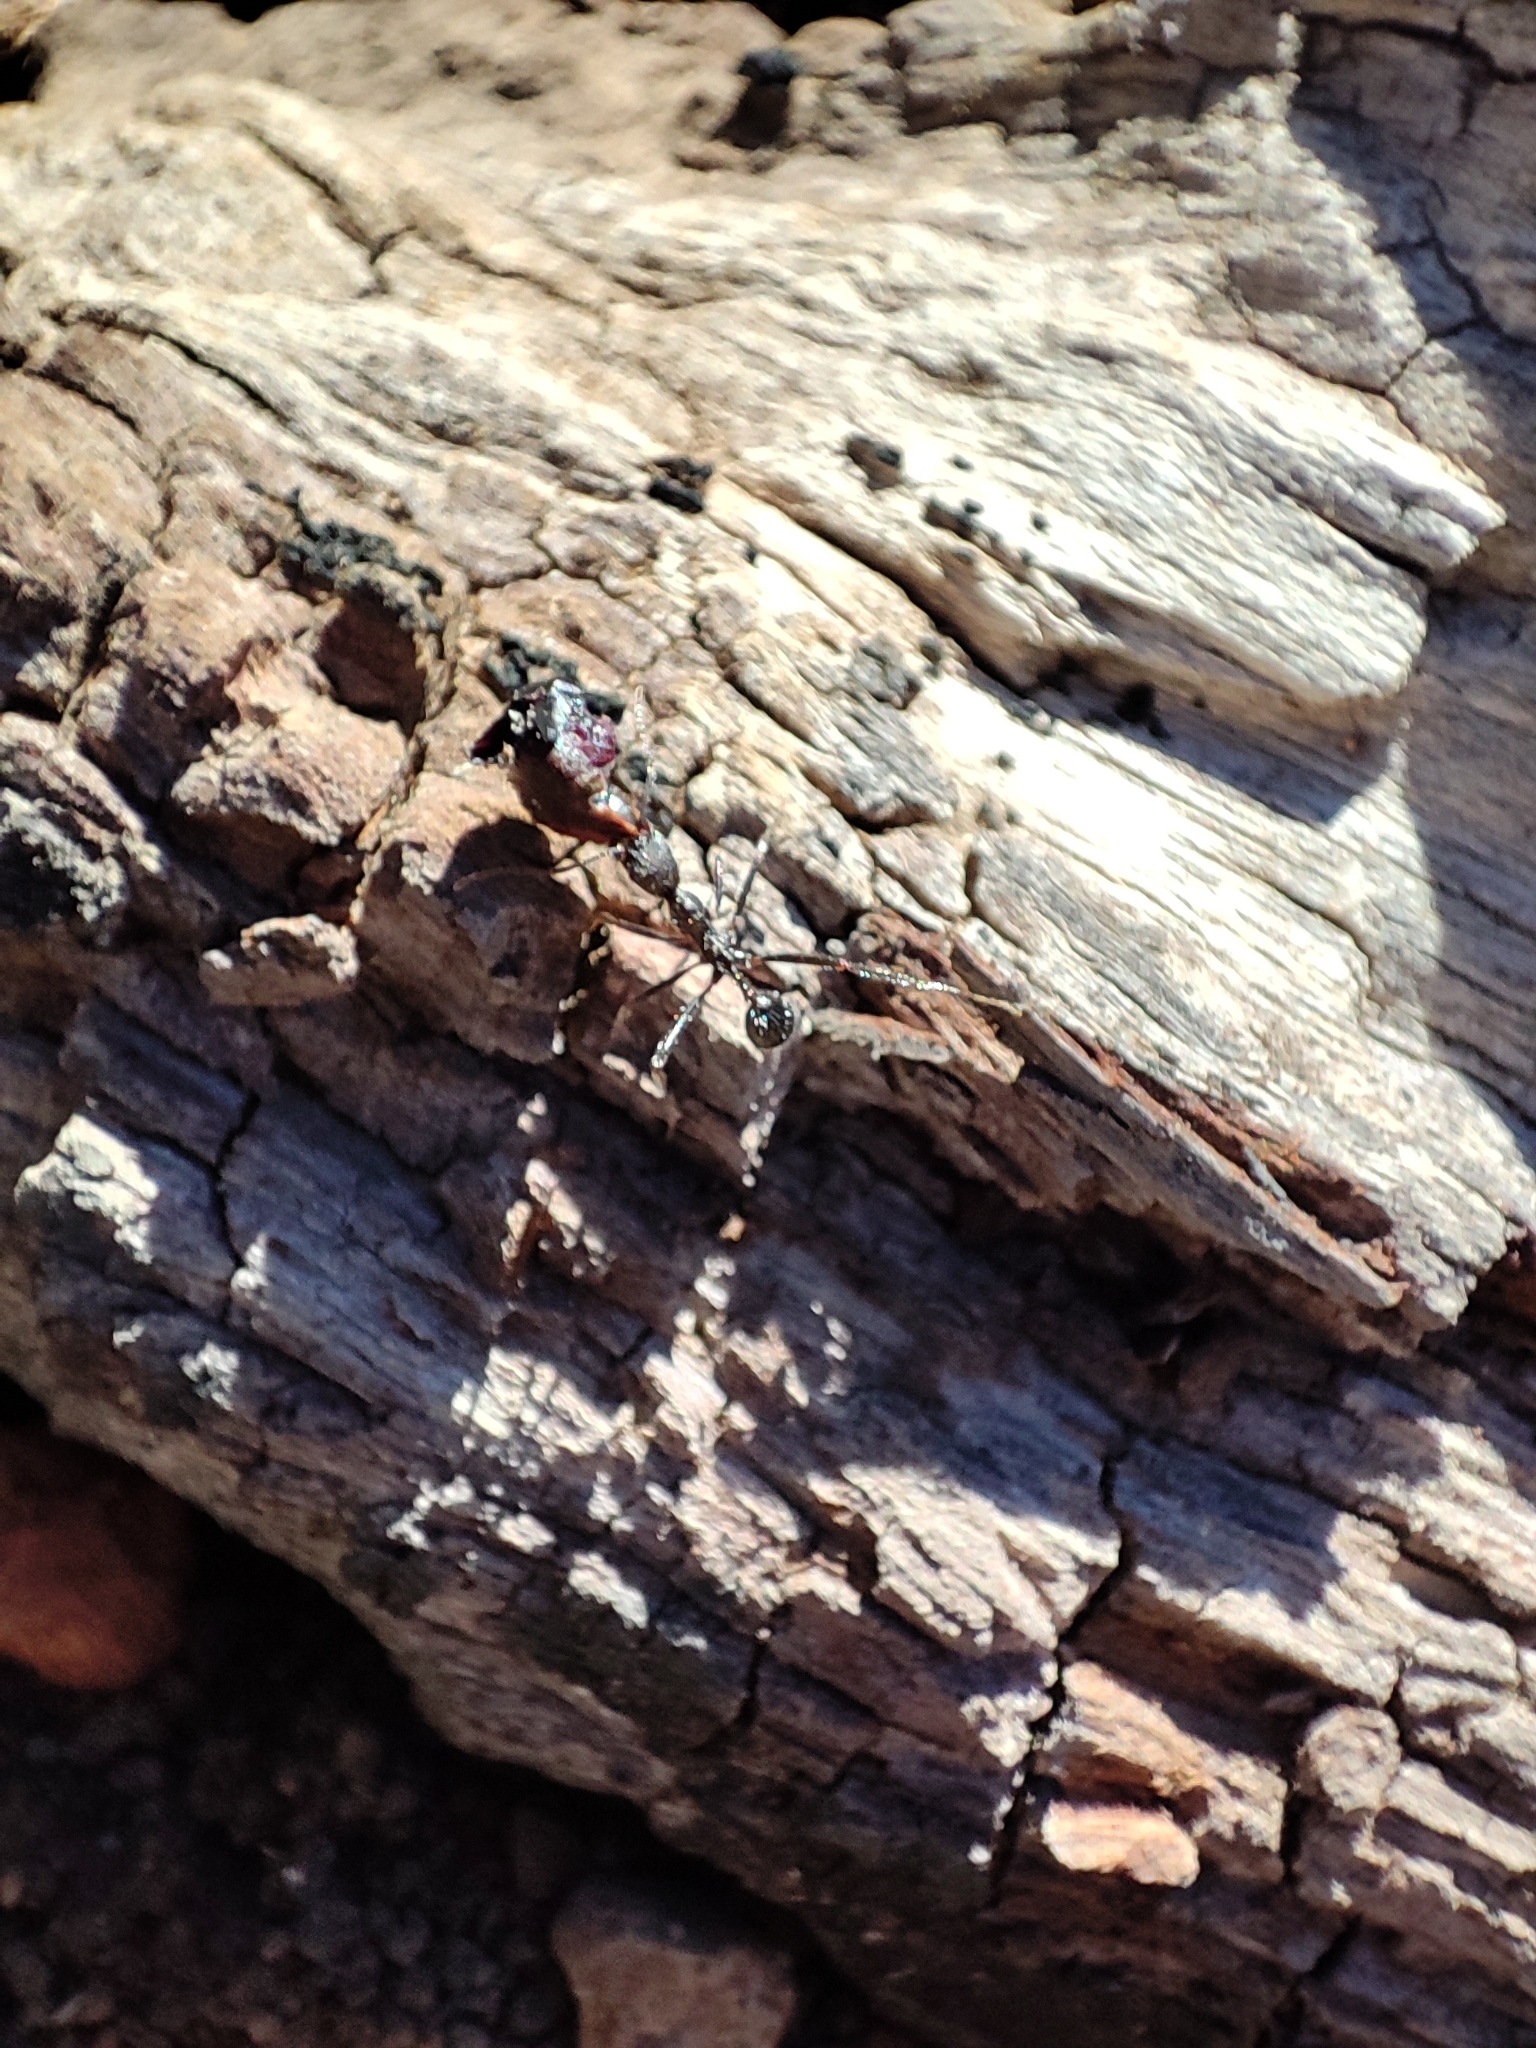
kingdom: Animalia
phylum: Arthropoda
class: Insecta
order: Hymenoptera
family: Formicidae
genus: Aphaenogaster
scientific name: Aphaenogaster
